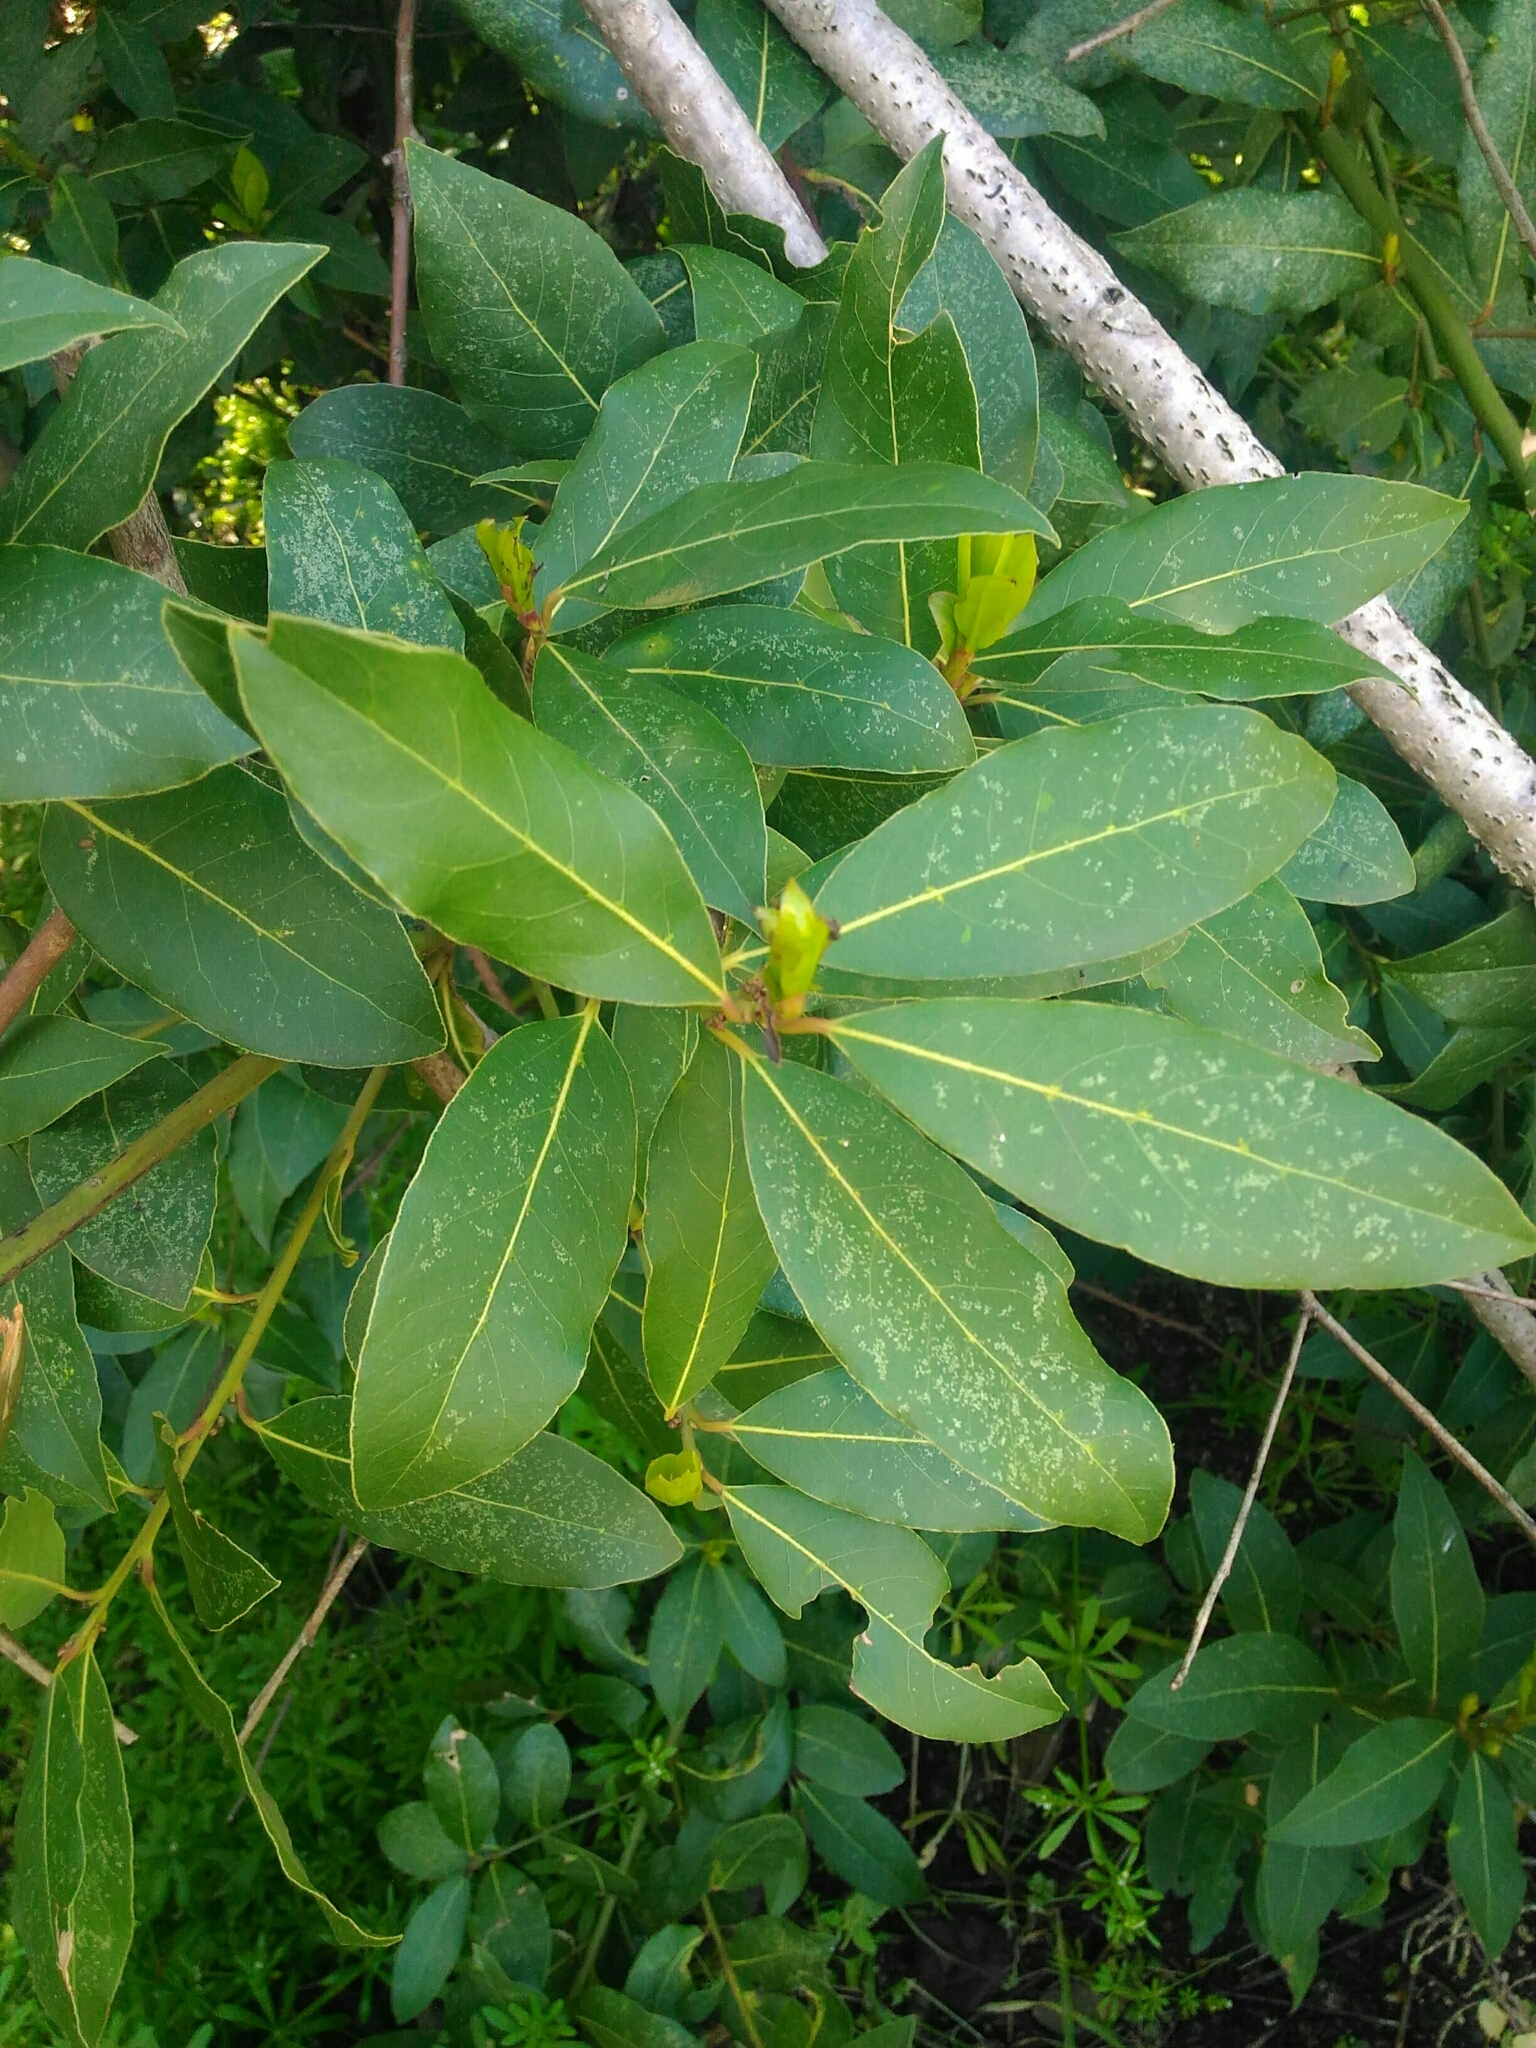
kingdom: Plantae
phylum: Tracheophyta
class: Magnoliopsida
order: Laurales
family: Lauraceae
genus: Laurus
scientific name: Laurus nobilis
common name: Bay
